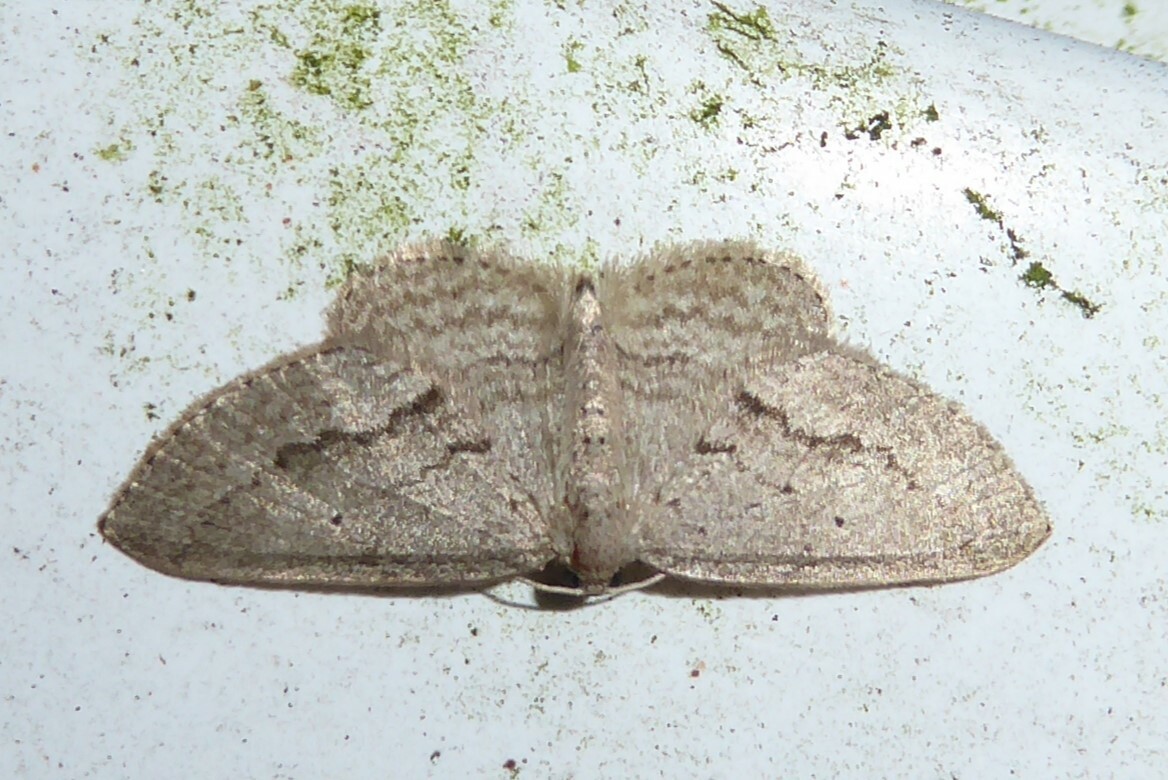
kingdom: Animalia
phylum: Arthropoda
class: Insecta
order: Lepidoptera
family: Geometridae
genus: Poecilasthena
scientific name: Poecilasthena schistaria
